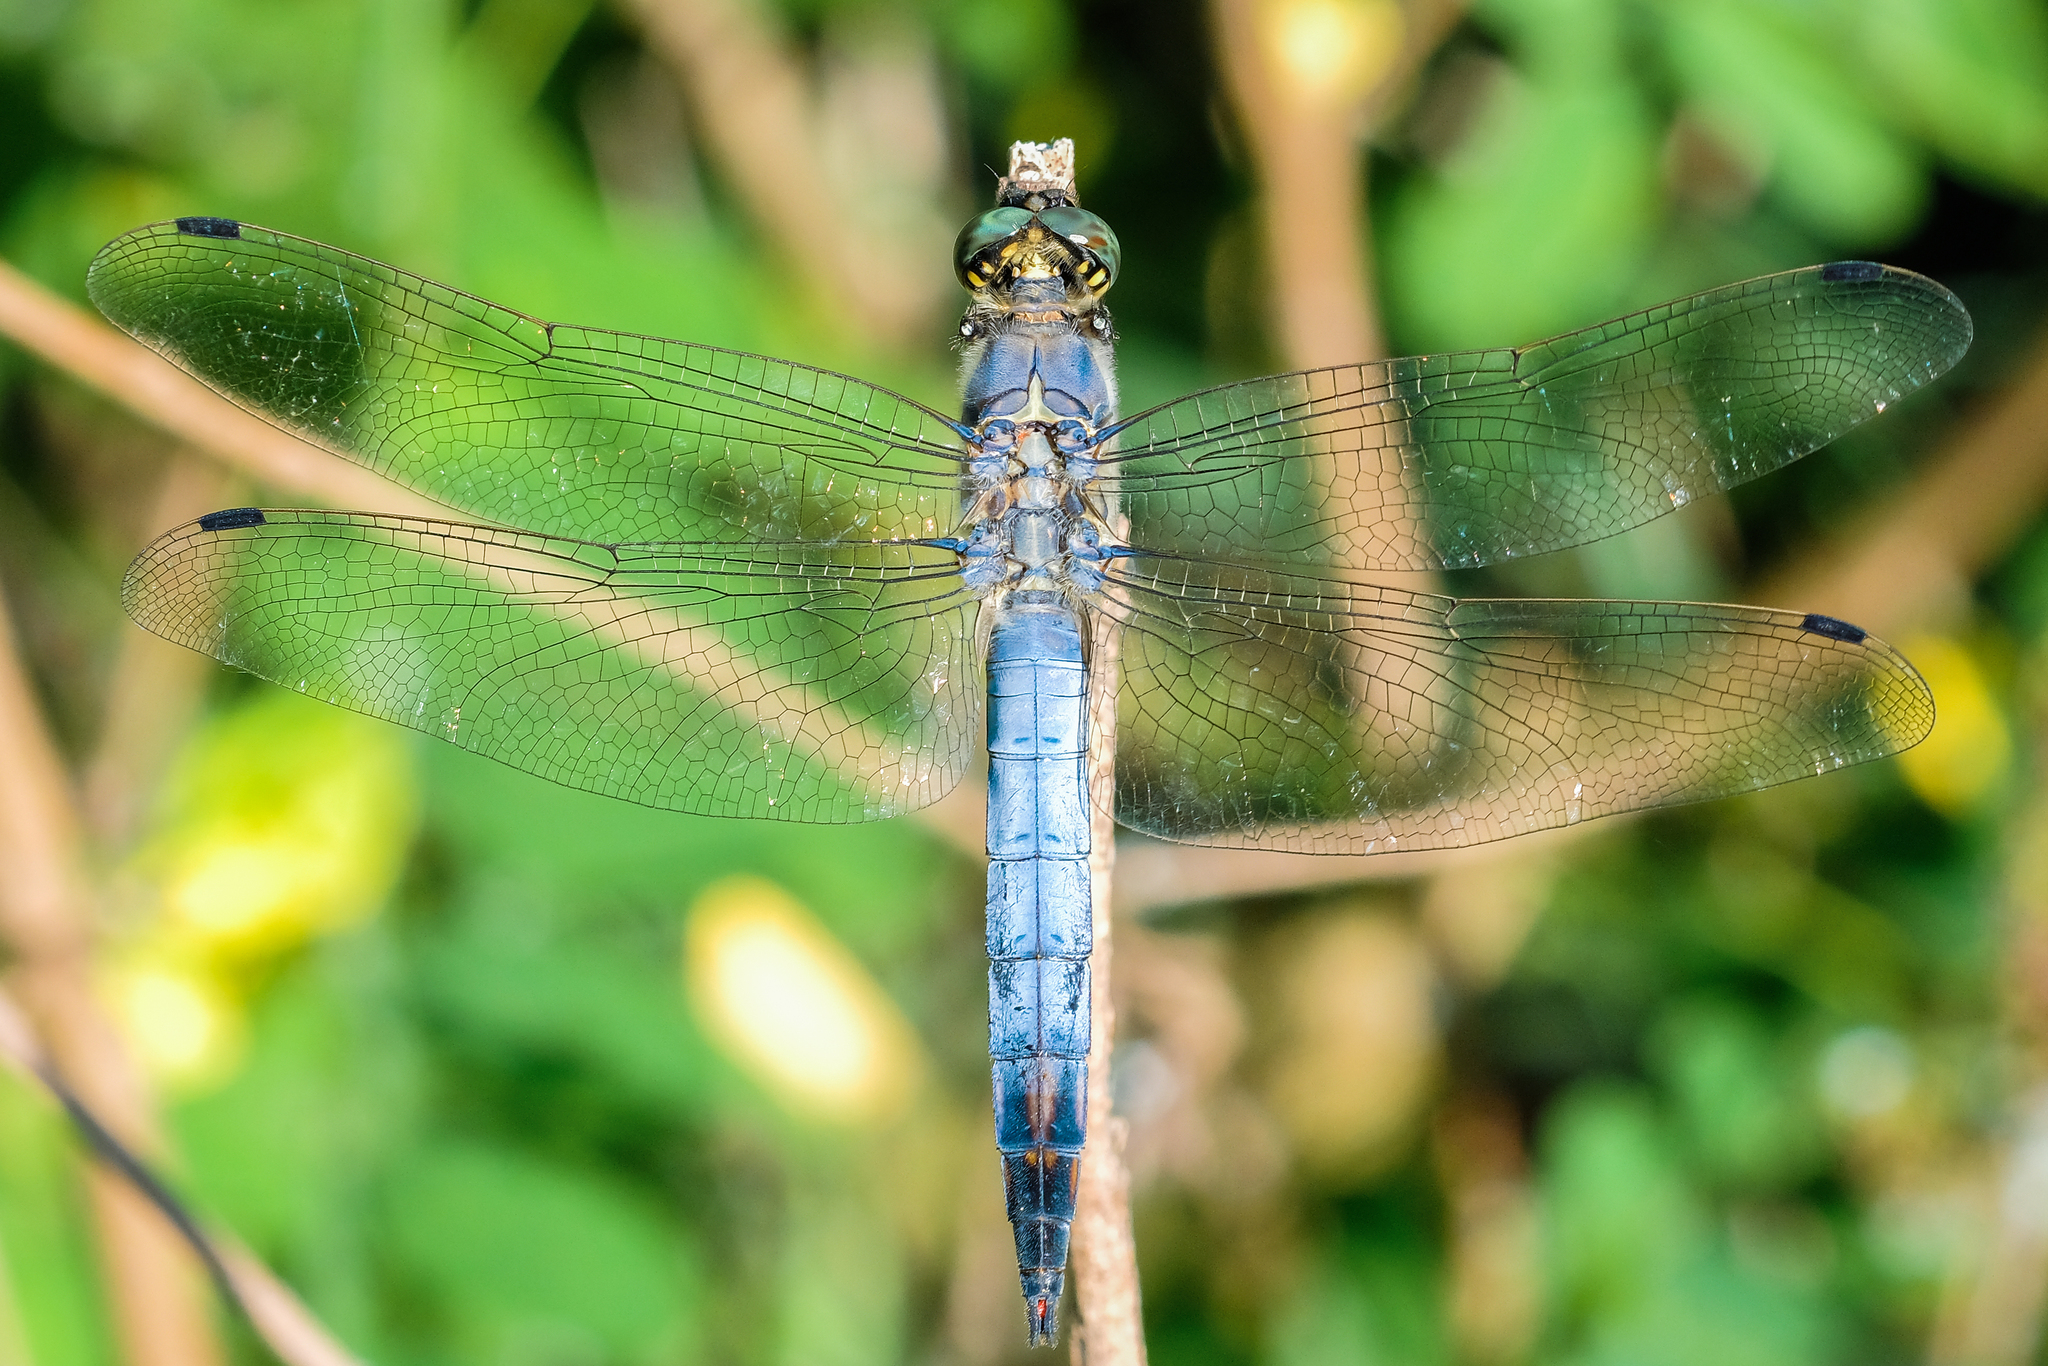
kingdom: Animalia
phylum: Arthropoda
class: Insecta
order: Odonata
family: Libellulidae
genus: Orthetrum
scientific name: Orthetrum cancellatum
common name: Black-tailed skimmer
